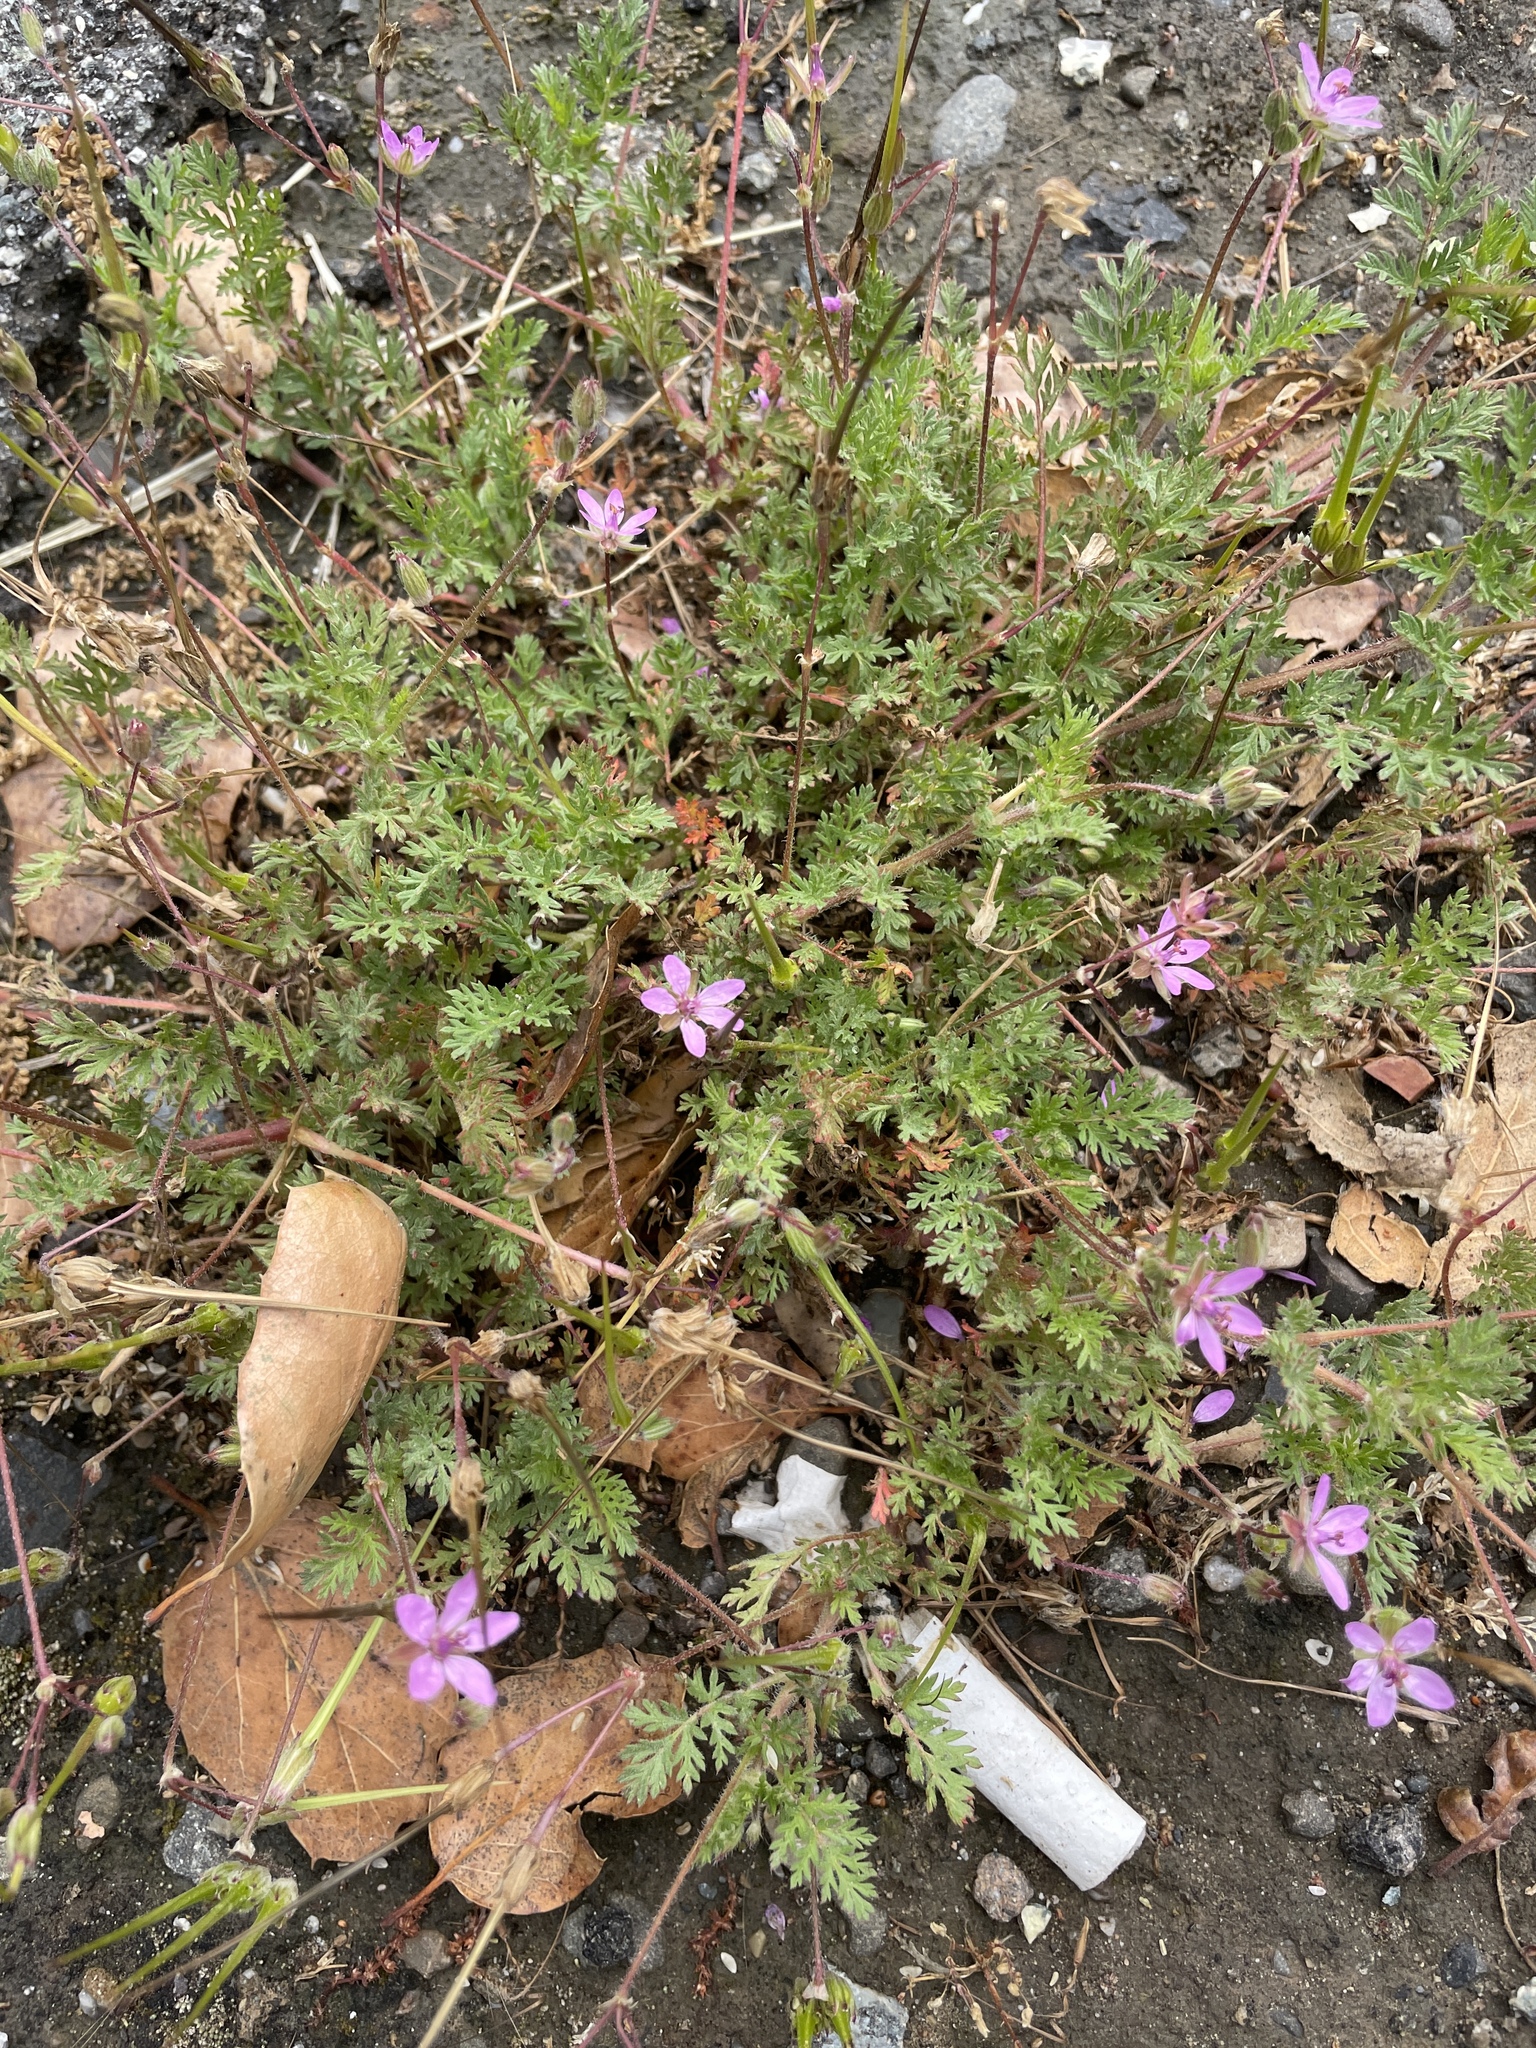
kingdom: Plantae
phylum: Tracheophyta
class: Magnoliopsida
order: Geraniales
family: Geraniaceae
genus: Erodium
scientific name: Erodium cicutarium
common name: Common stork's-bill
